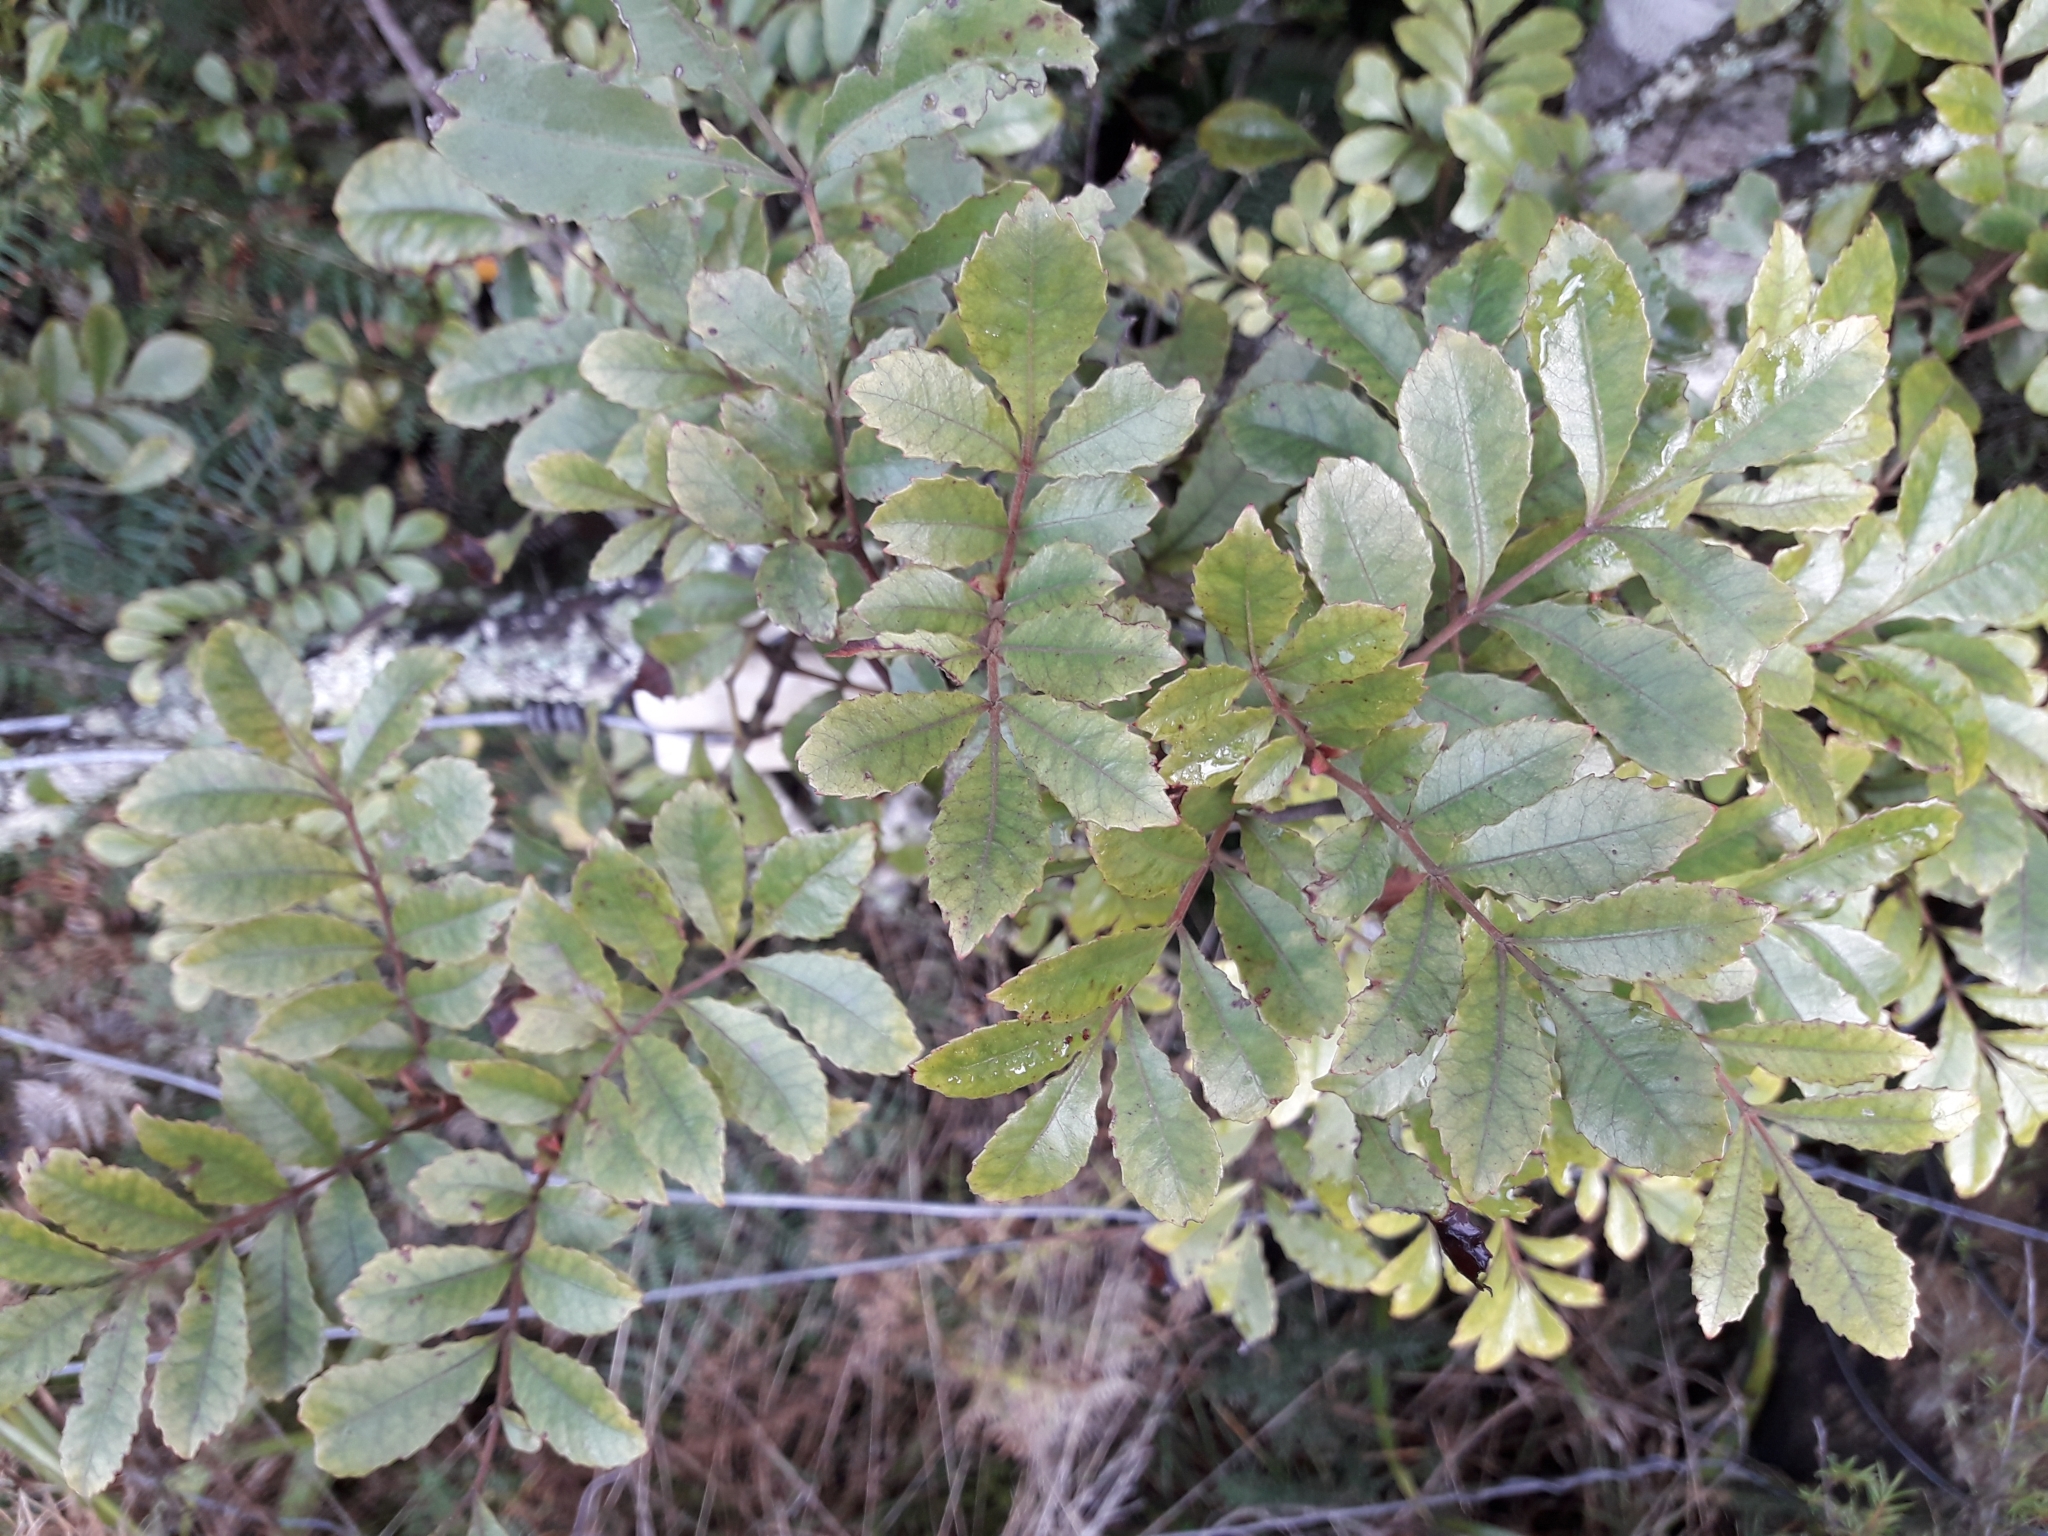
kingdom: Plantae
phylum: Tracheophyta
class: Magnoliopsida
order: Oxalidales
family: Cunoniaceae
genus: Pterophylla
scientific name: Pterophylla sylvicola
